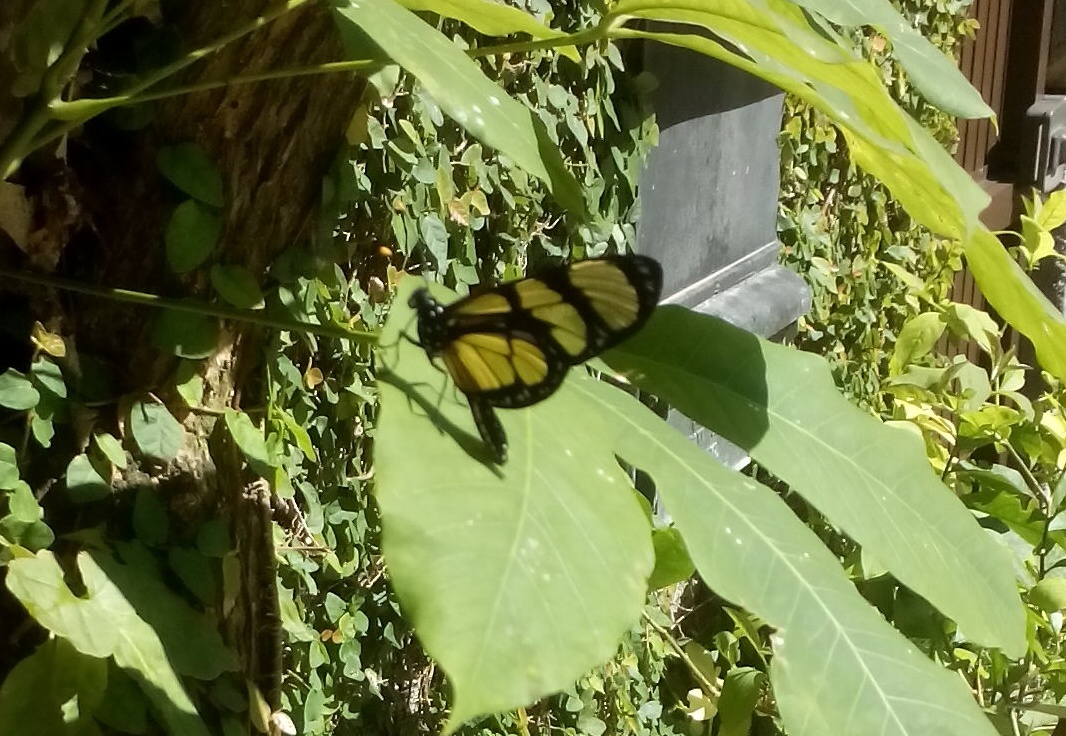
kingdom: Animalia
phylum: Arthropoda
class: Insecta
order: Lepidoptera
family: Nymphalidae
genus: Methona
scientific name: Methona themisto
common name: Themisto amberwing
